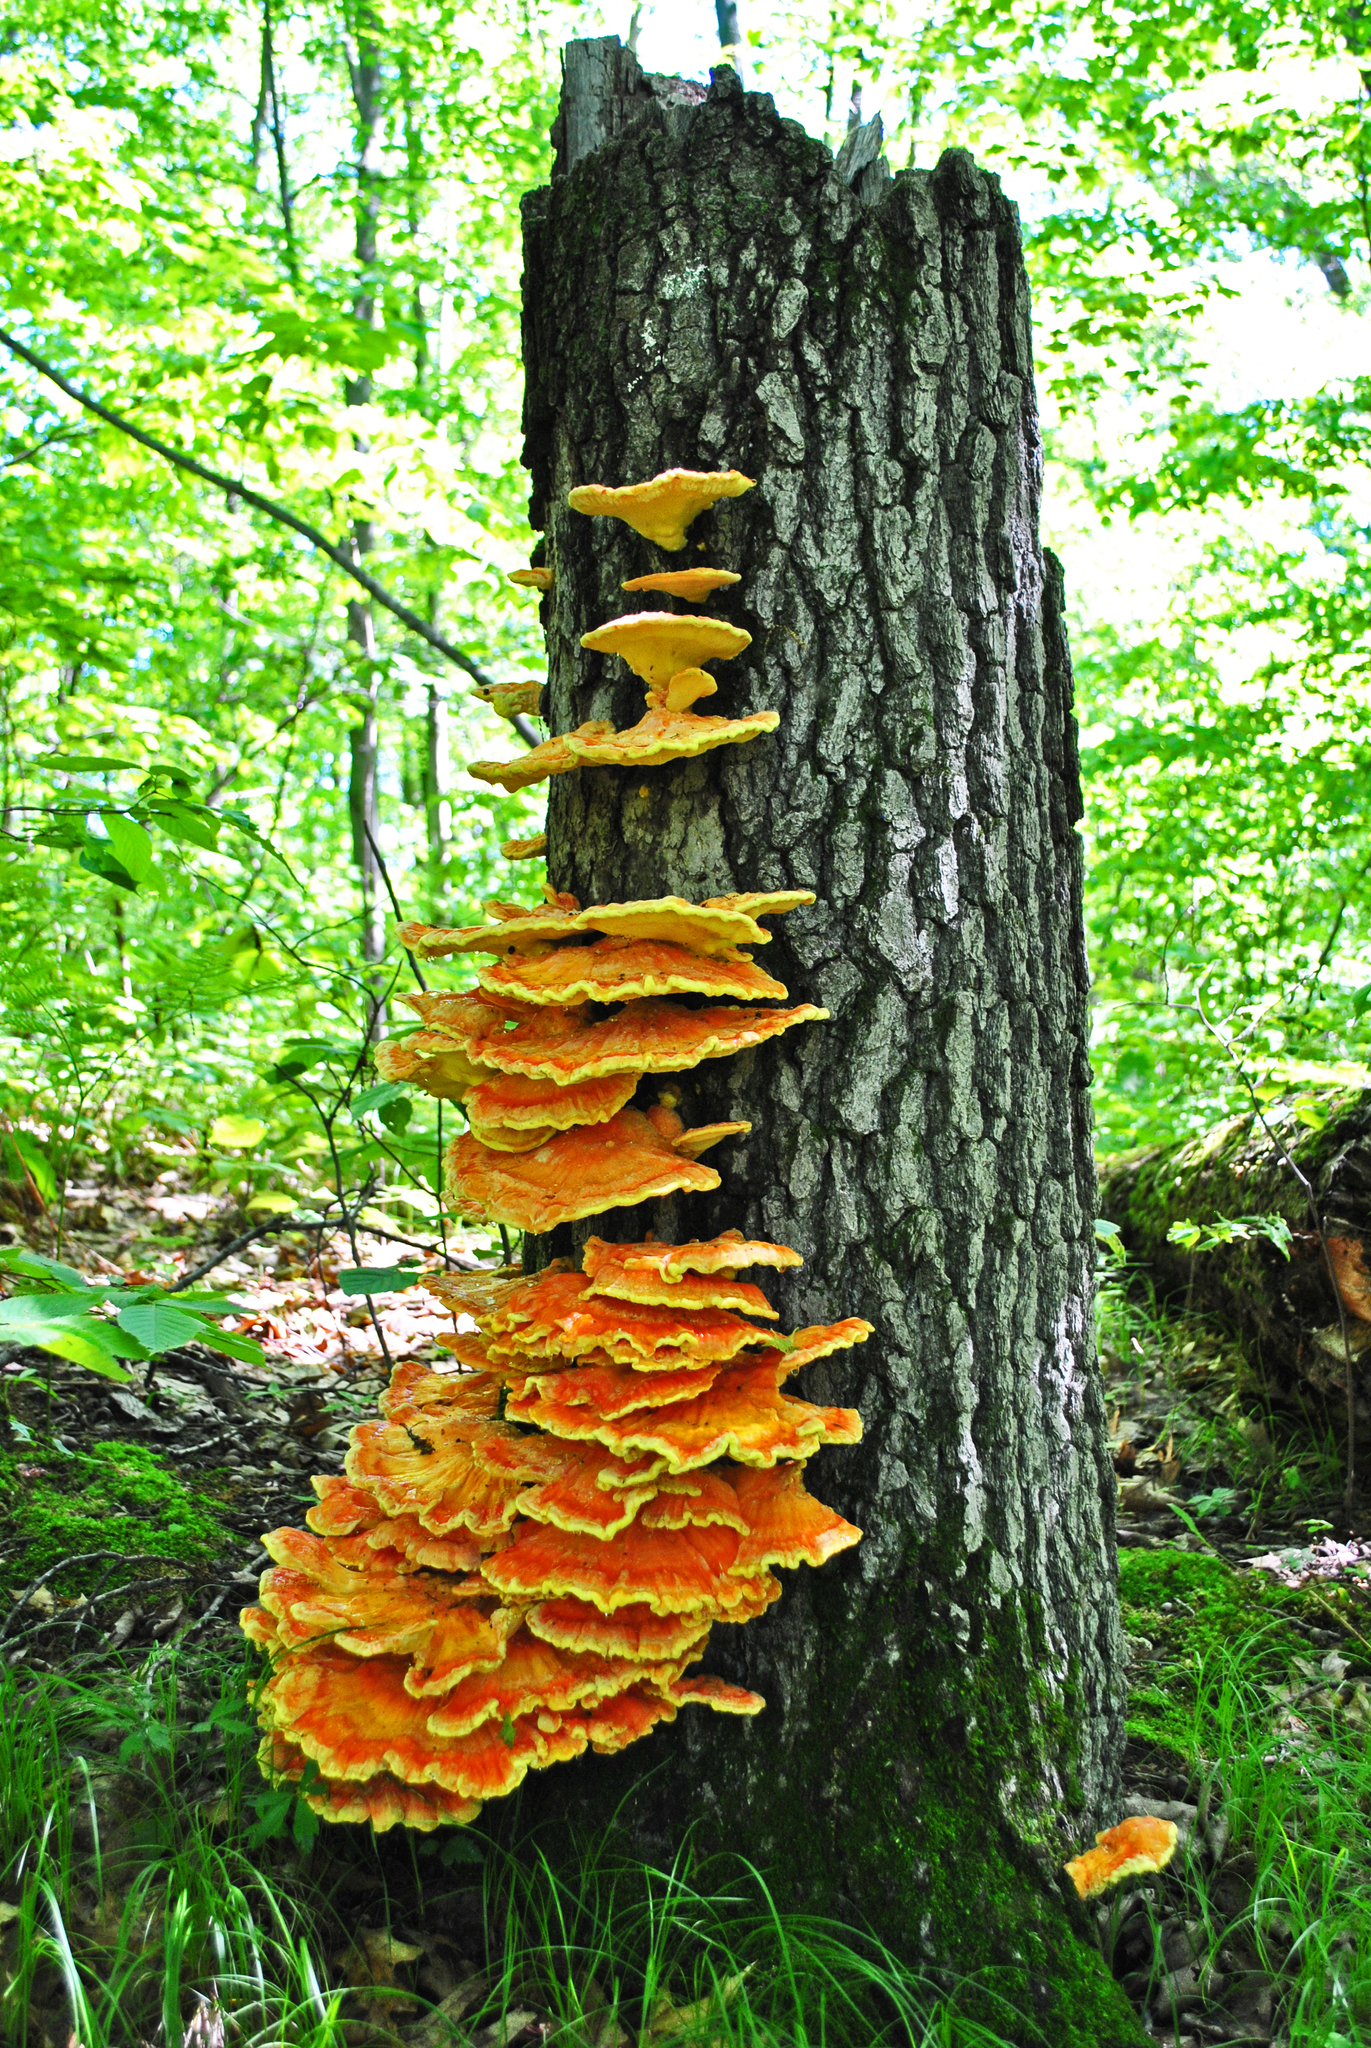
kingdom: Fungi
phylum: Basidiomycota
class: Agaricomycetes
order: Polyporales
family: Laetiporaceae
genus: Laetiporus
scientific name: Laetiporus sulphureus
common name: Chicken of the woods
